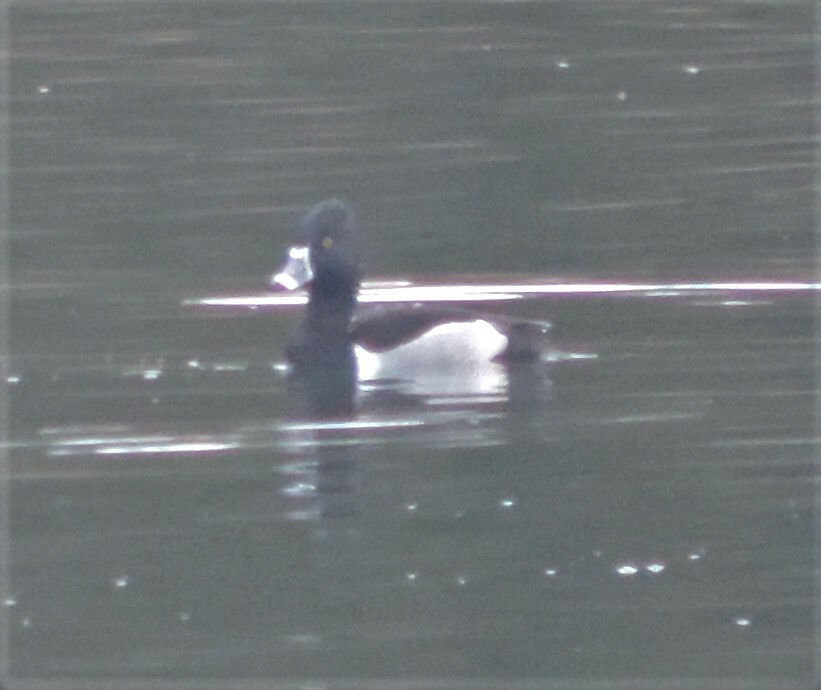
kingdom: Animalia
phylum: Chordata
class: Aves
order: Anseriformes
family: Anatidae
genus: Aythya
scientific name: Aythya collaris
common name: Ring-necked duck
